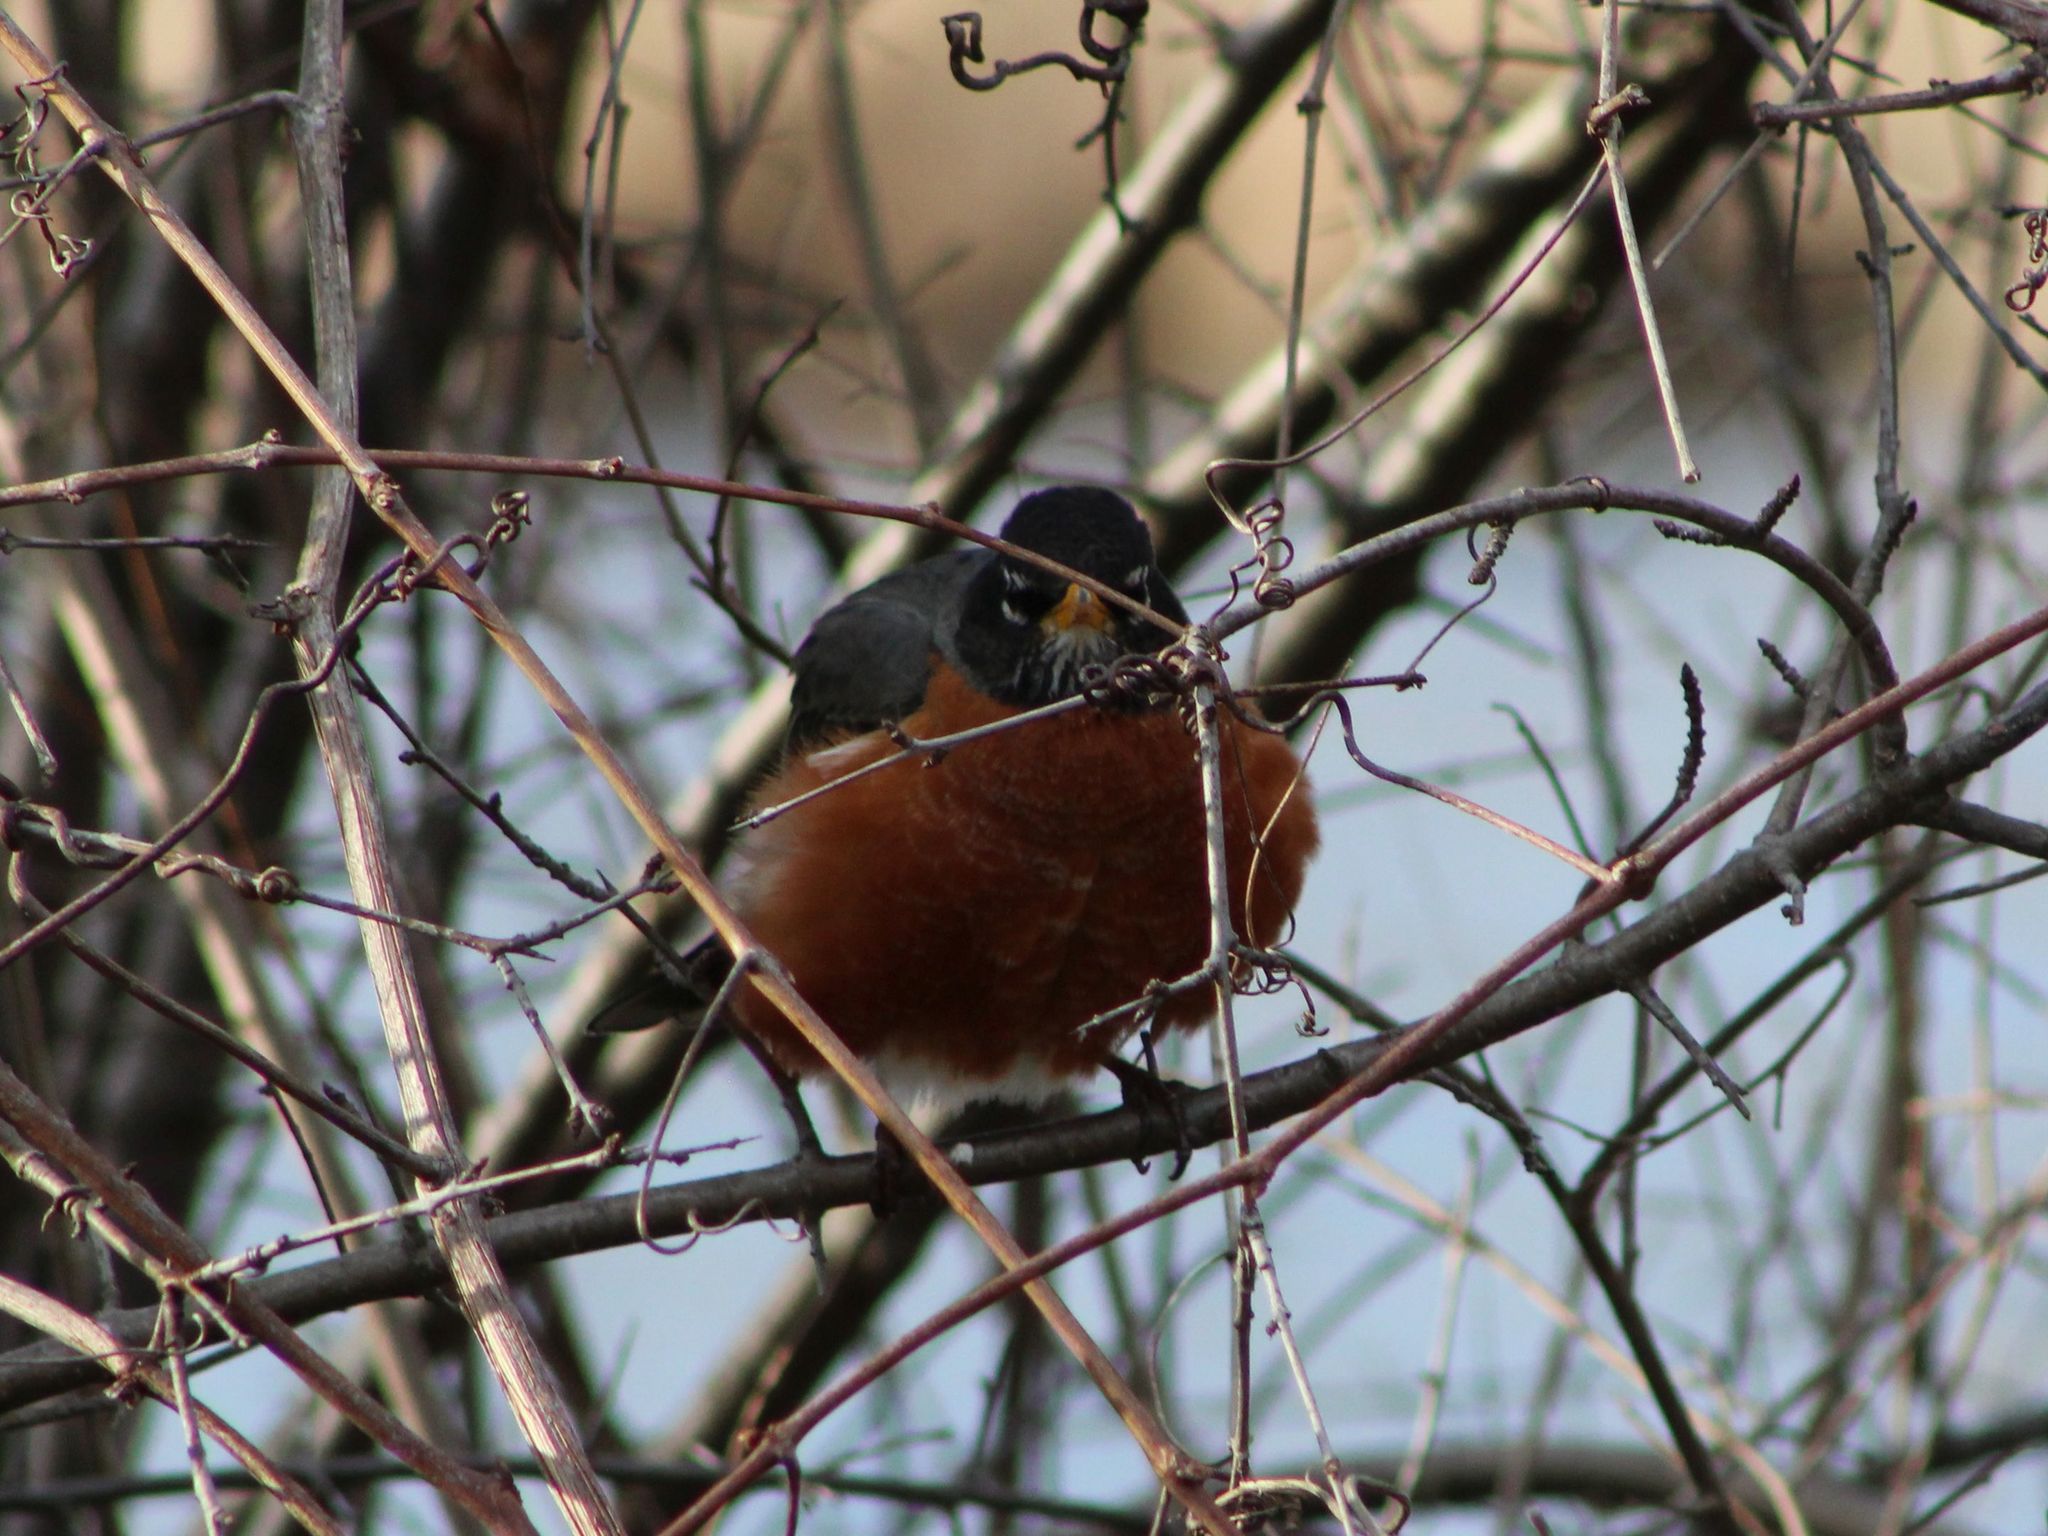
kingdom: Animalia
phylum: Chordata
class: Aves
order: Passeriformes
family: Turdidae
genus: Turdus
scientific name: Turdus migratorius
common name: American robin
